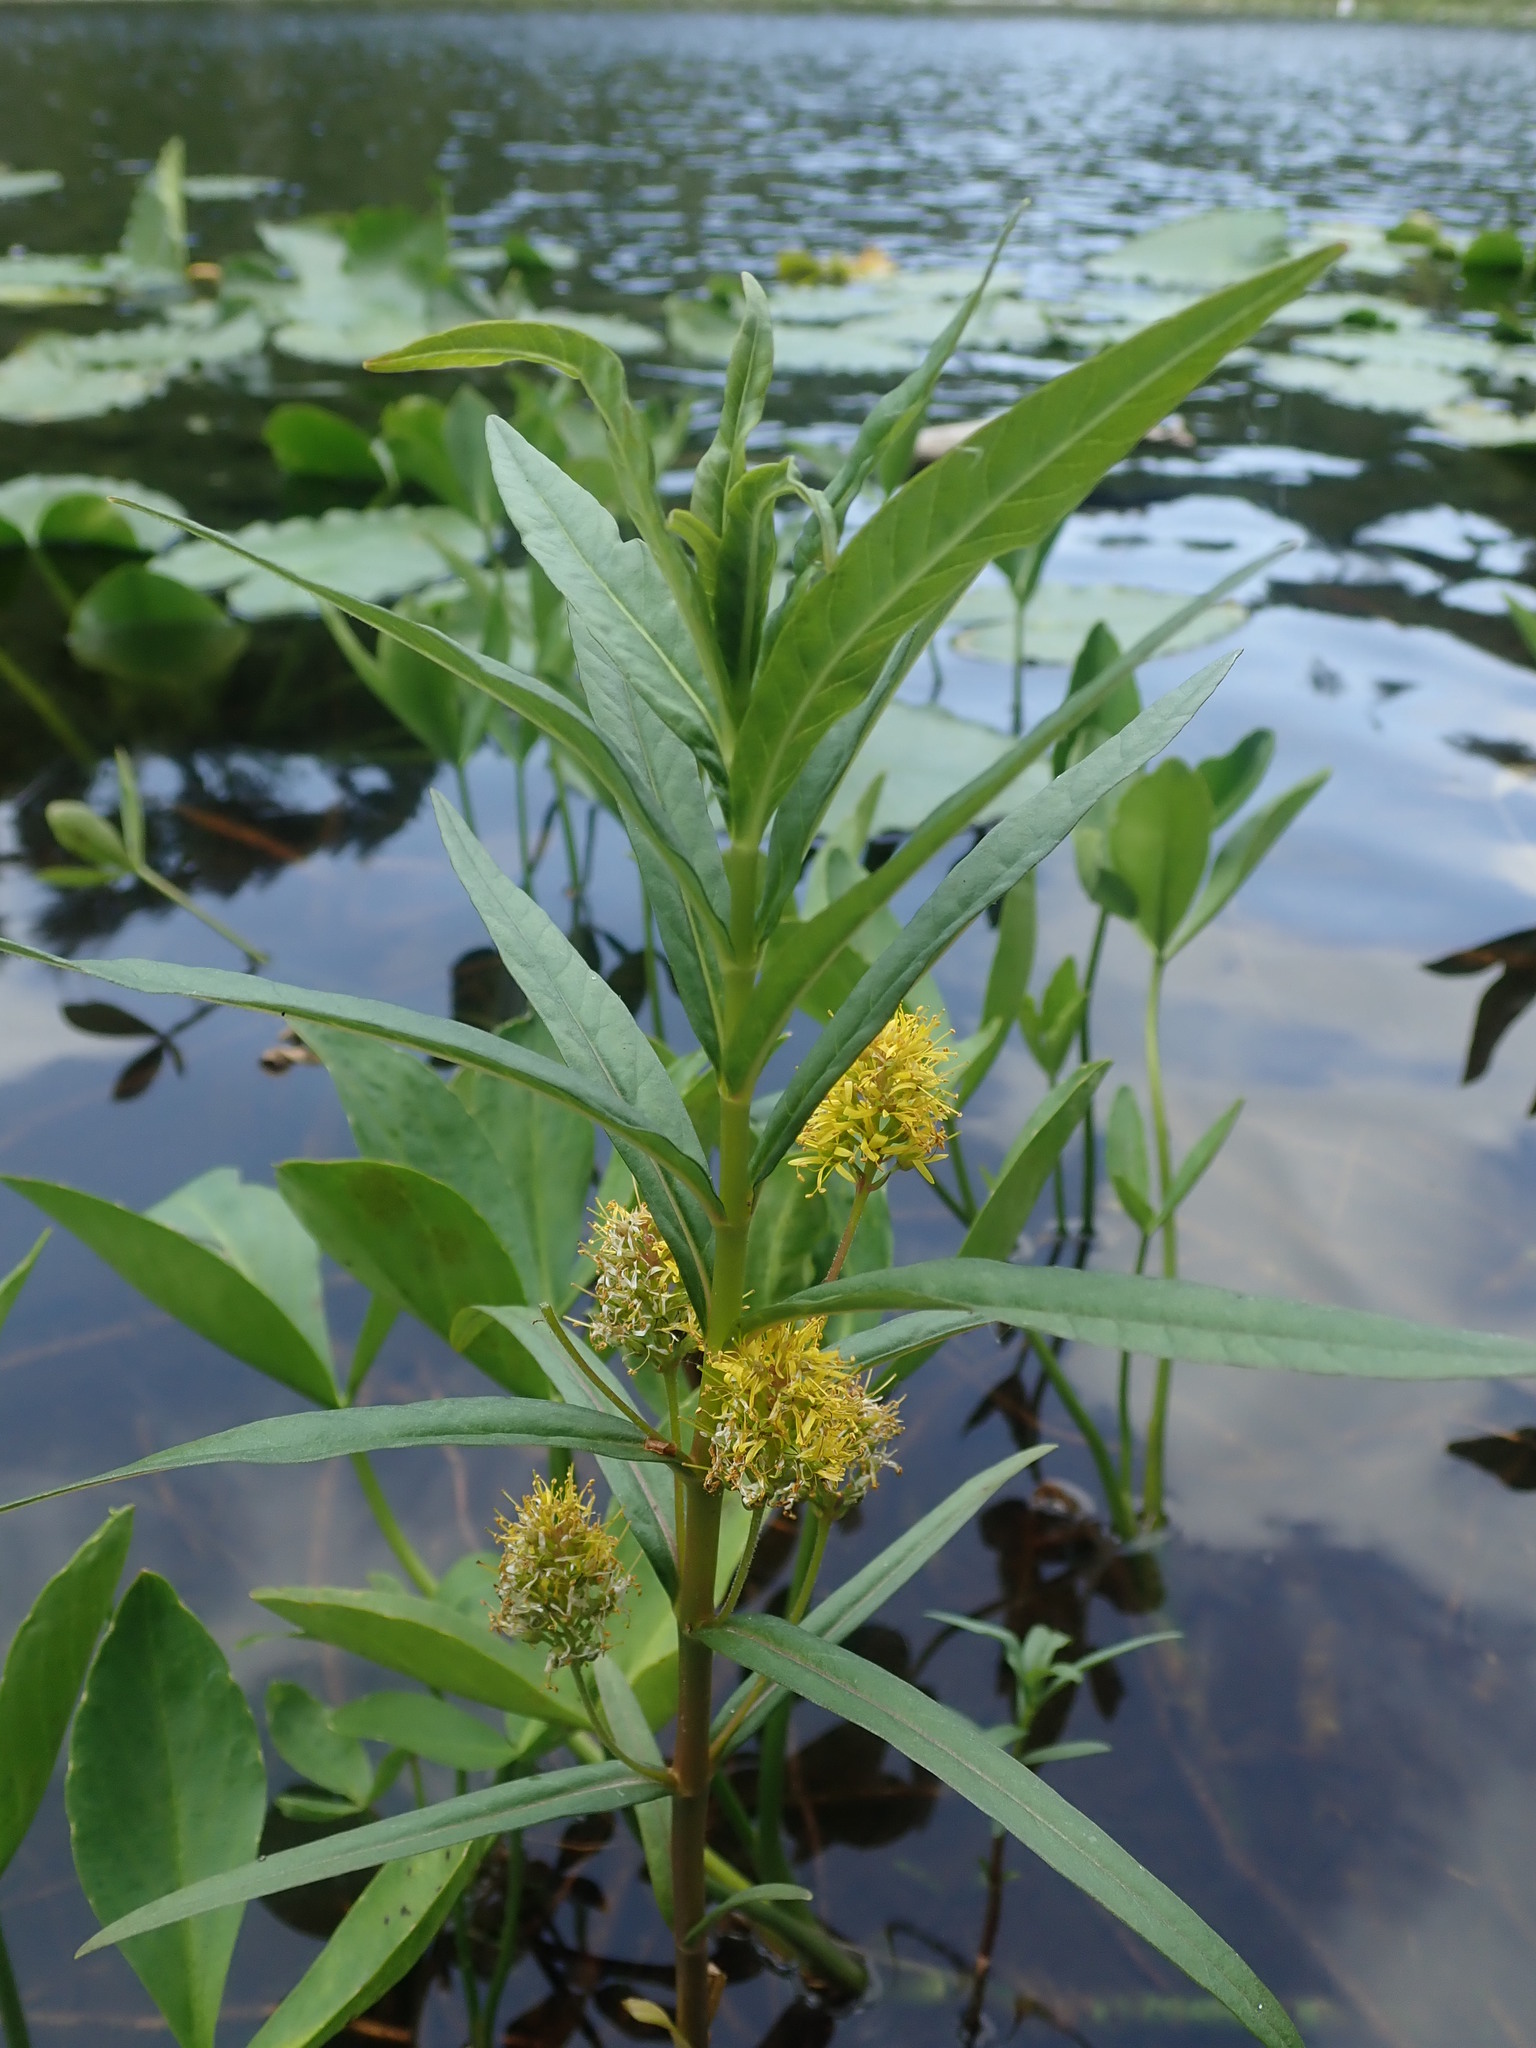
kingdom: Plantae
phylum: Tracheophyta
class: Magnoliopsida
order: Ericales
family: Primulaceae
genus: Lysimachia
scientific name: Lysimachia thyrsiflora
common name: Tufted loosestrife
